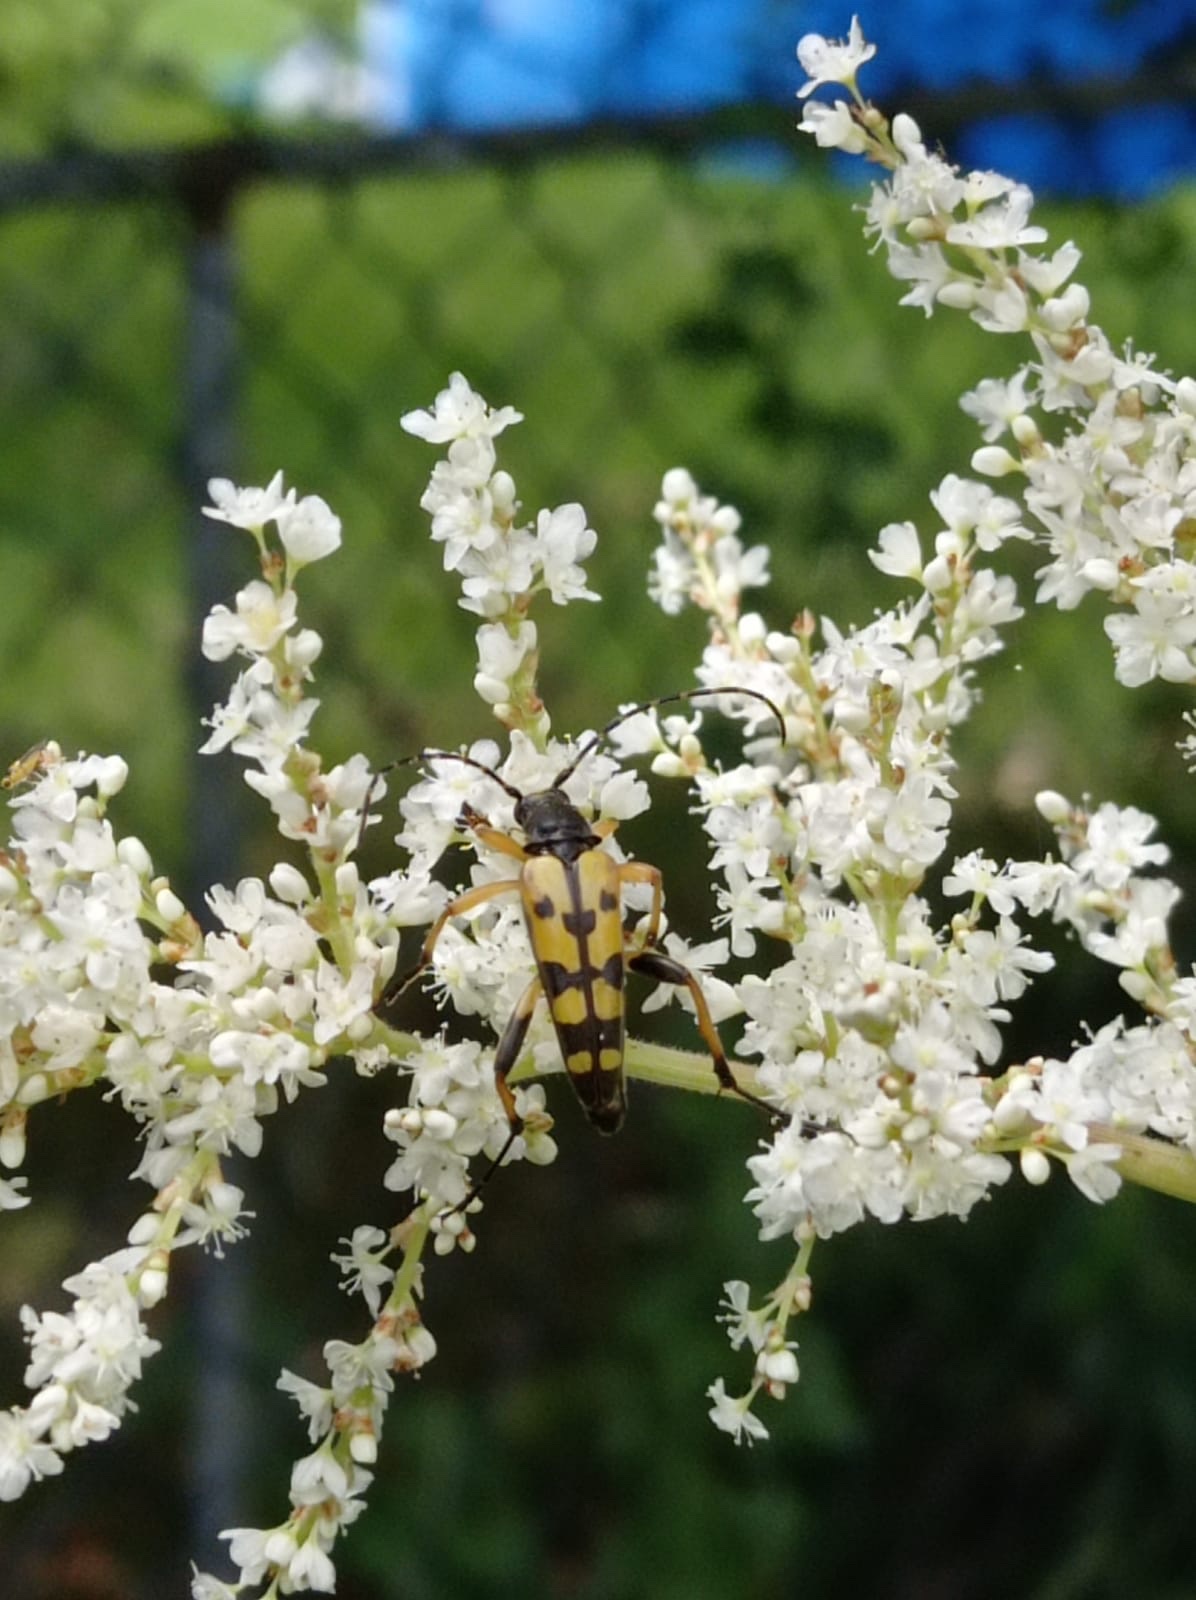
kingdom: Animalia
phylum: Arthropoda
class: Insecta
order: Coleoptera
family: Cerambycidae
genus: Rutpela
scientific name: Rutpela maculata
